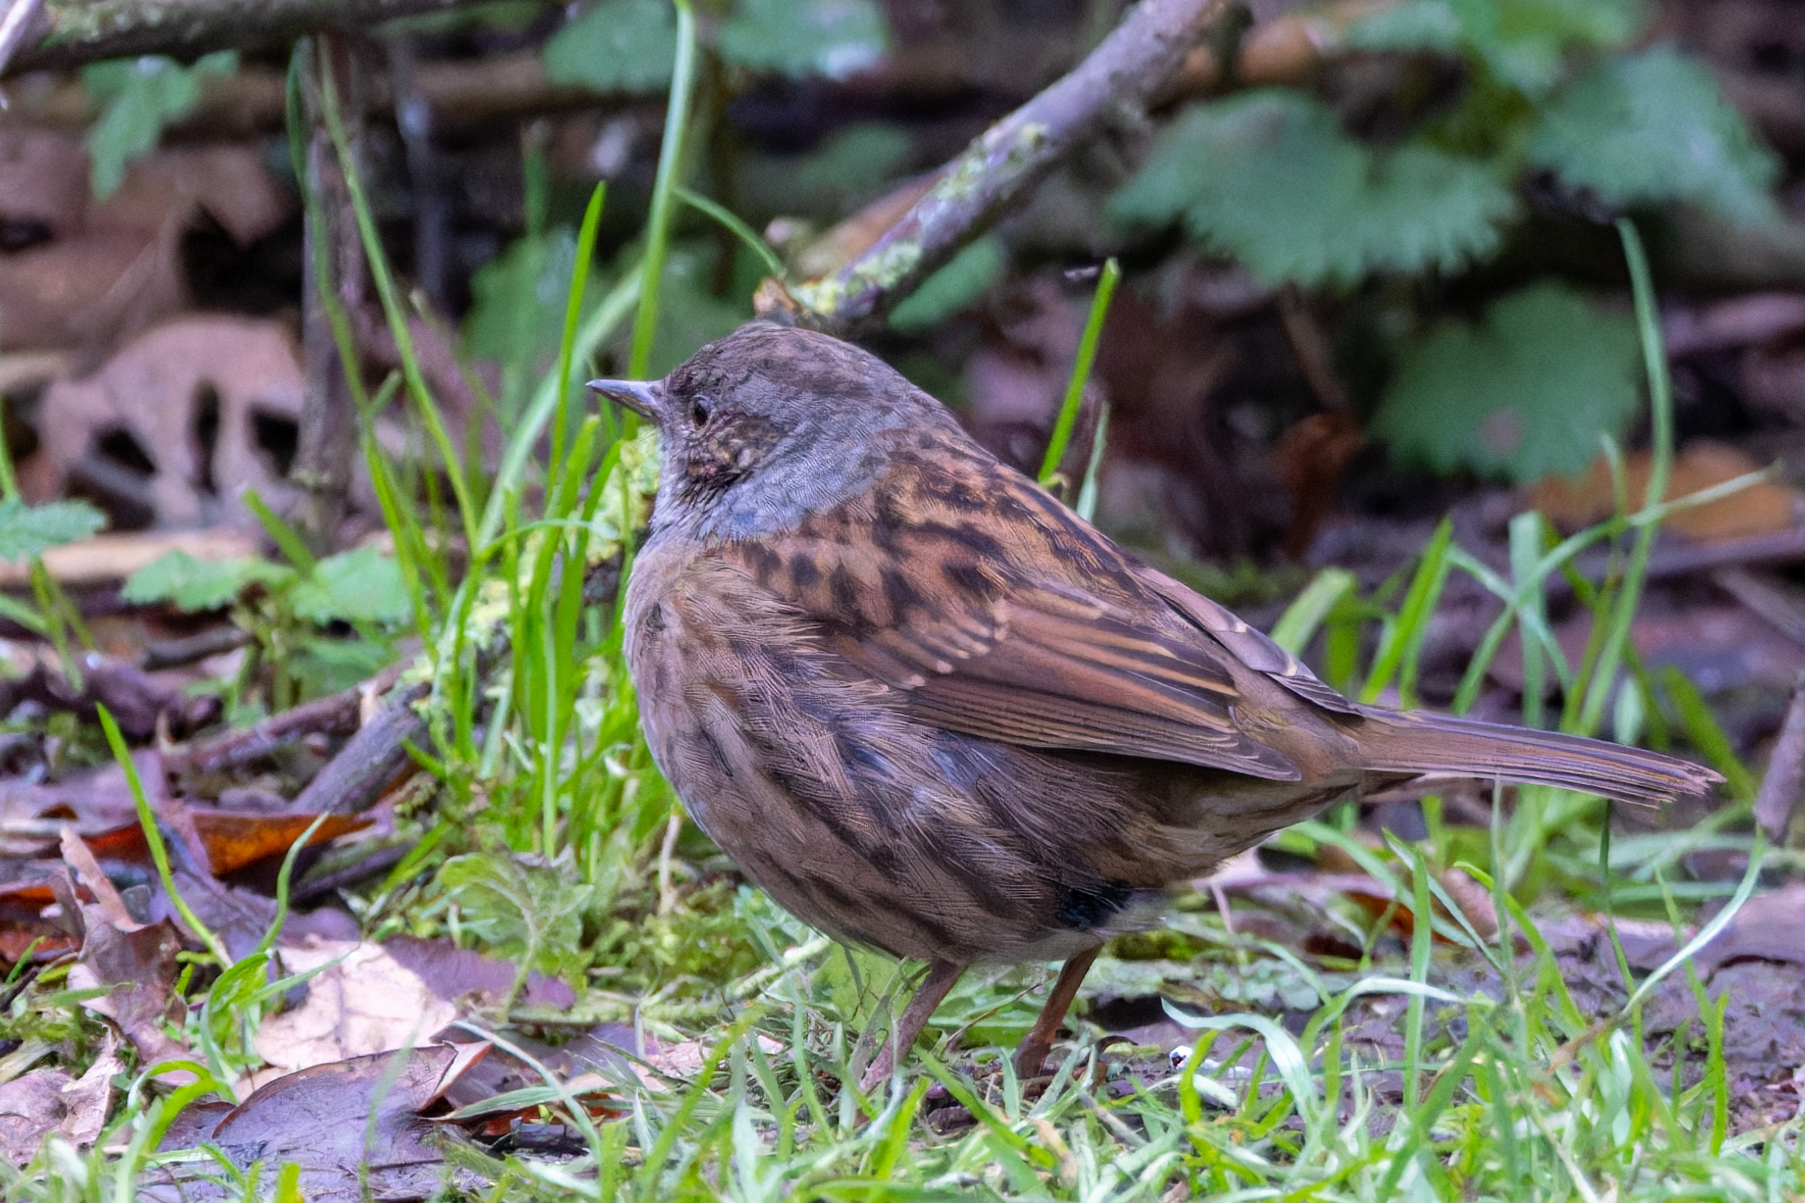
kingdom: Animalia
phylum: Chordata
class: Aves
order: Passeriformes
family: Prunellidae
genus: Prunella
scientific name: Prunella modularis
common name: Dunnock
